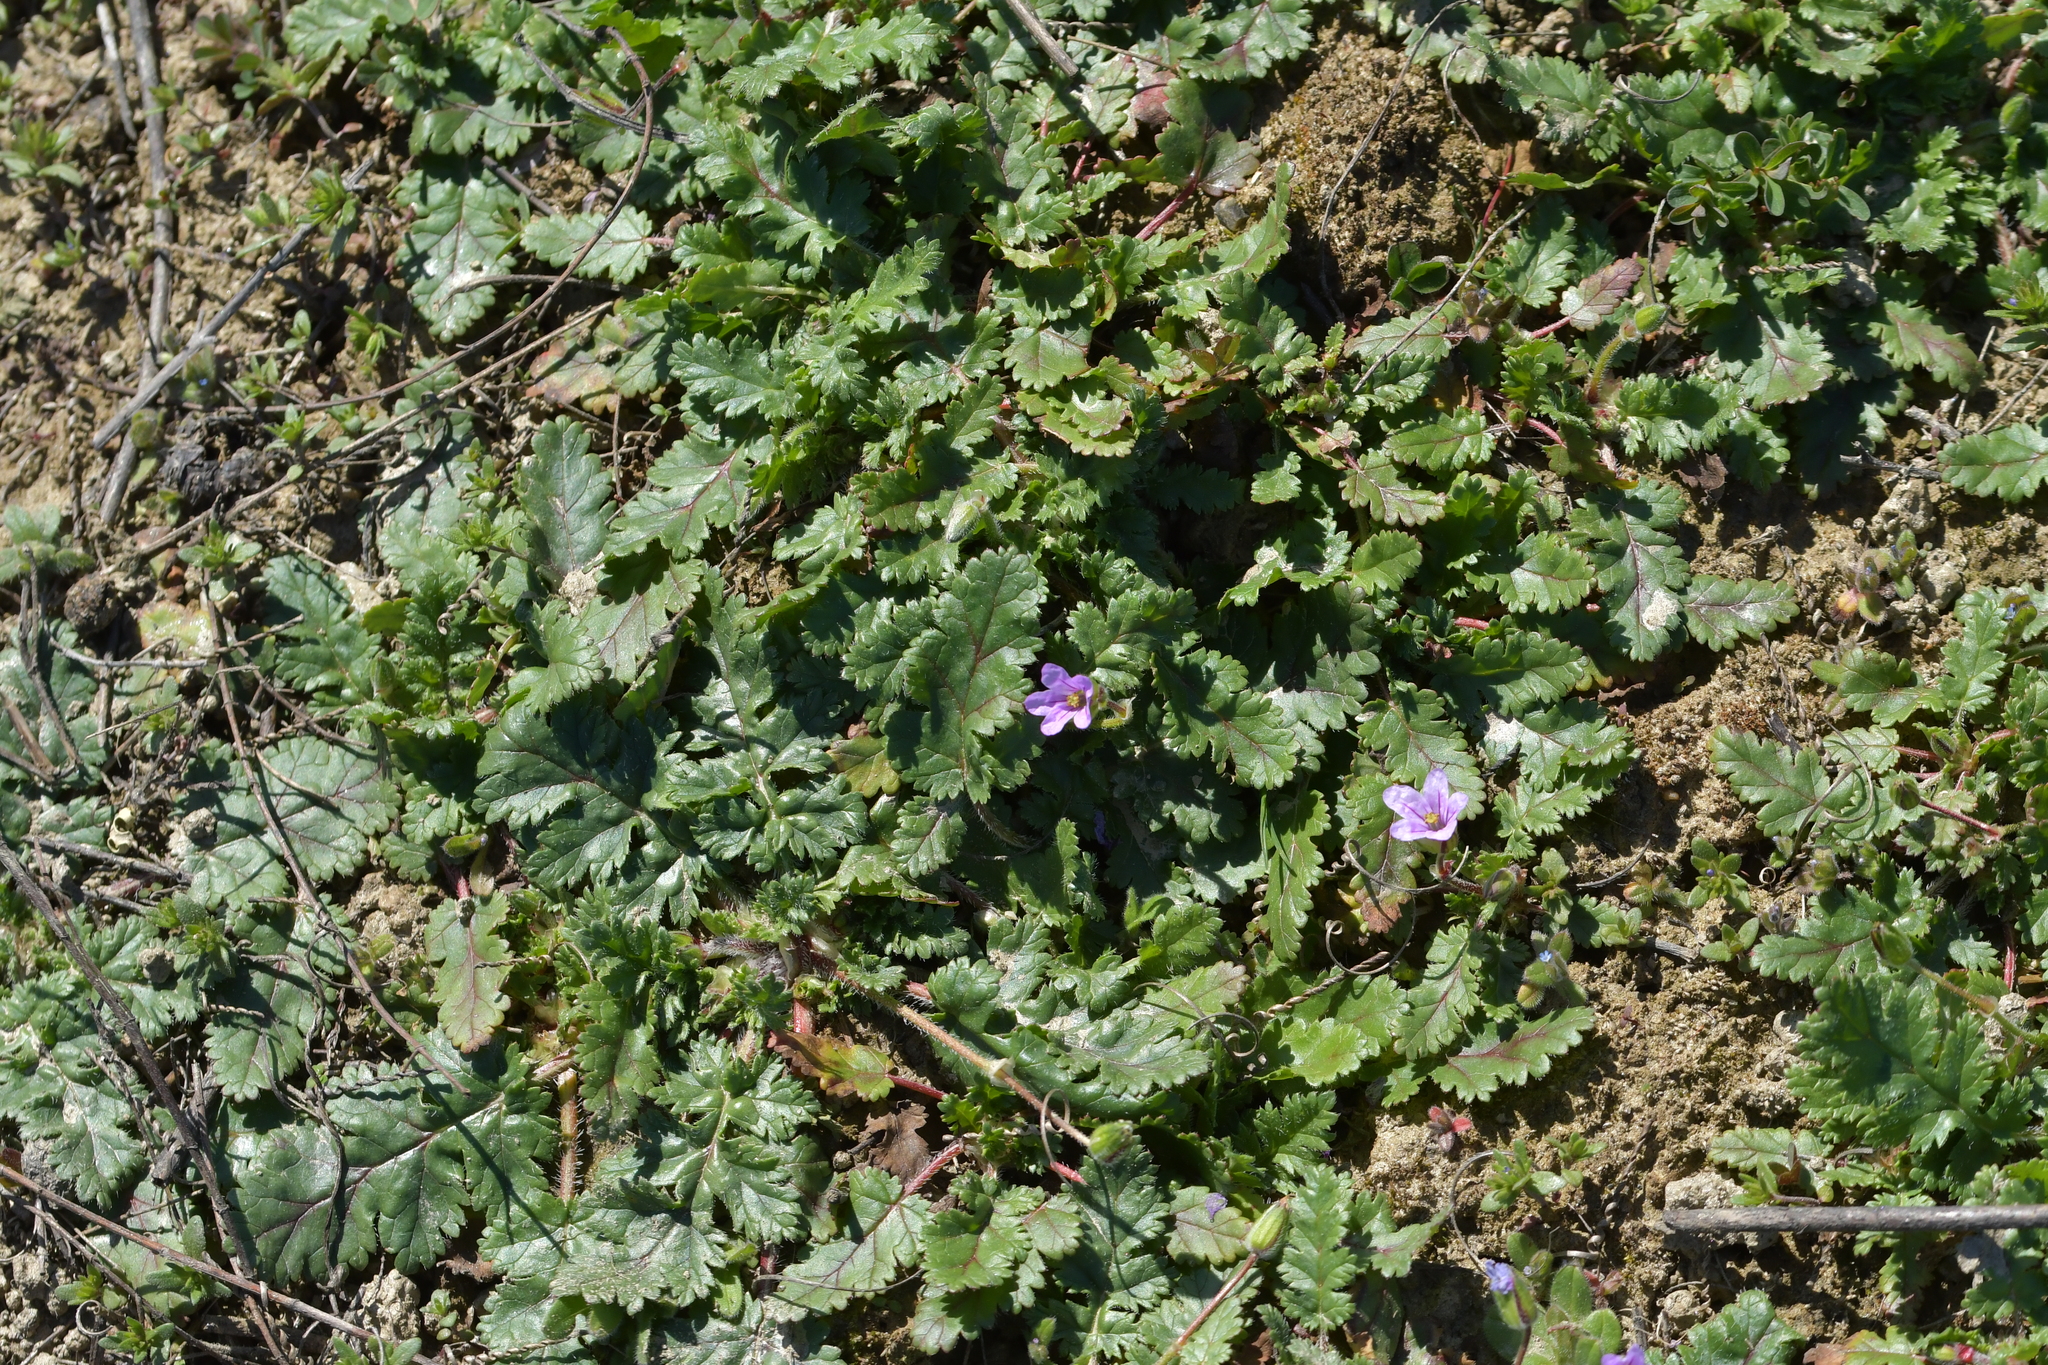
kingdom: Plantae
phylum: Tracheophyta
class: Magnoliopsida
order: Geraniales
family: Geraniaceae
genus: Erodium
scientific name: Erodium botrys
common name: Mediterranean stork's-bill
